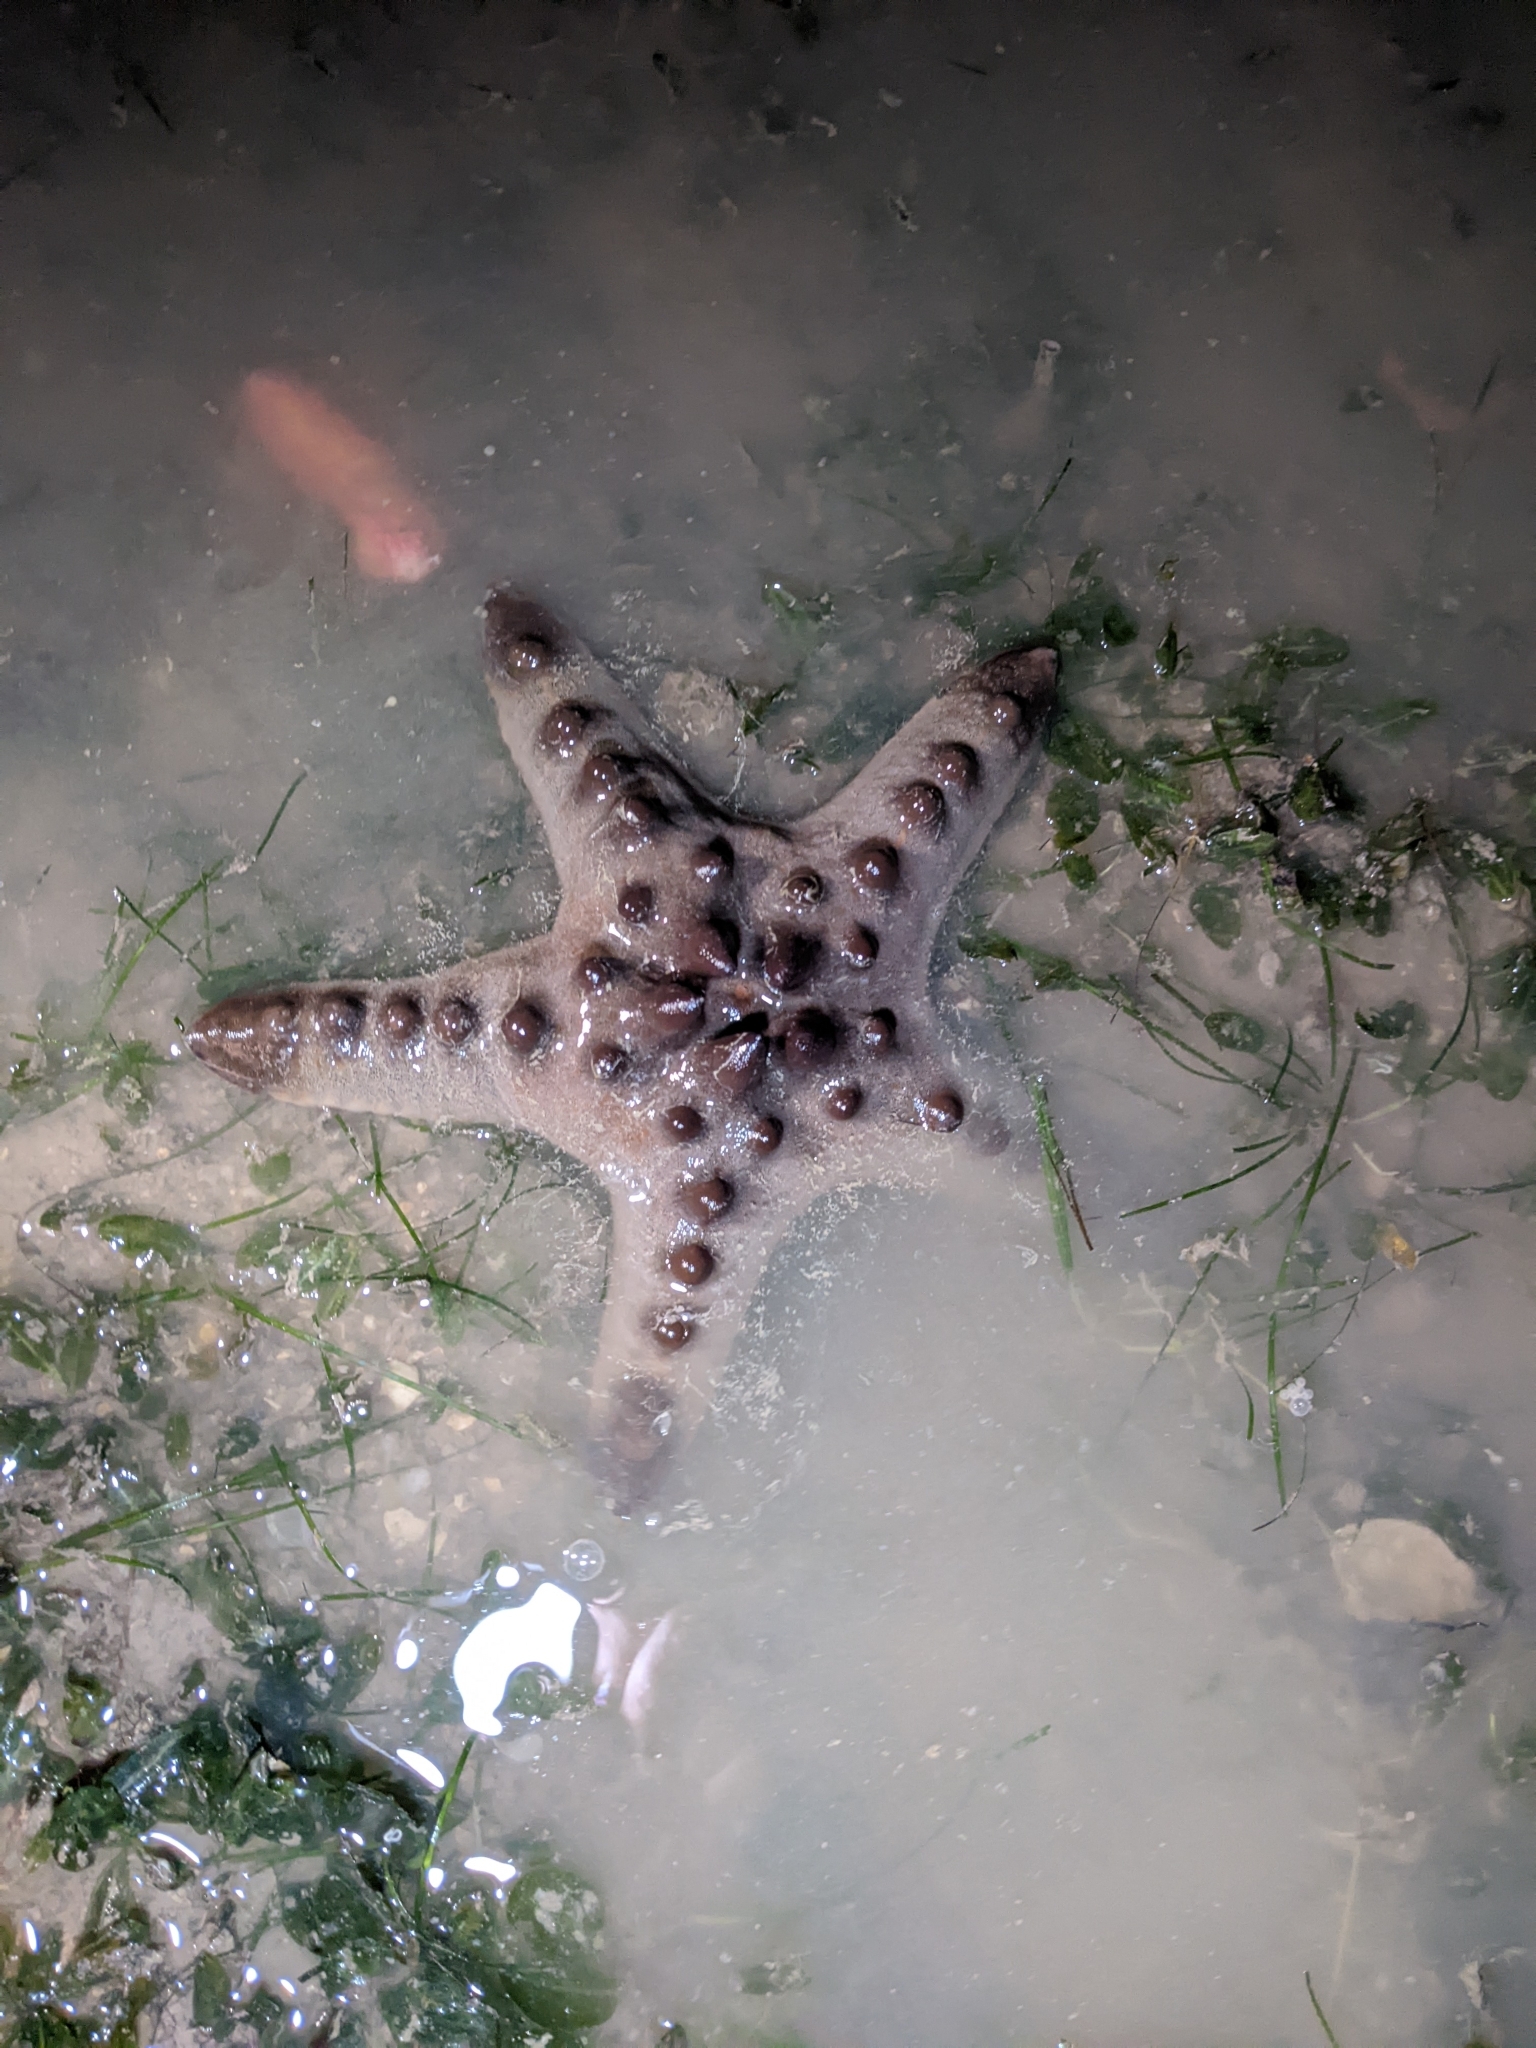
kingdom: Animalia
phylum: Echinodermata
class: Asteroidea
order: Valvatida
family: Oreasteridae
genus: Protoreaster
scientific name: Protoreaster nodosus
